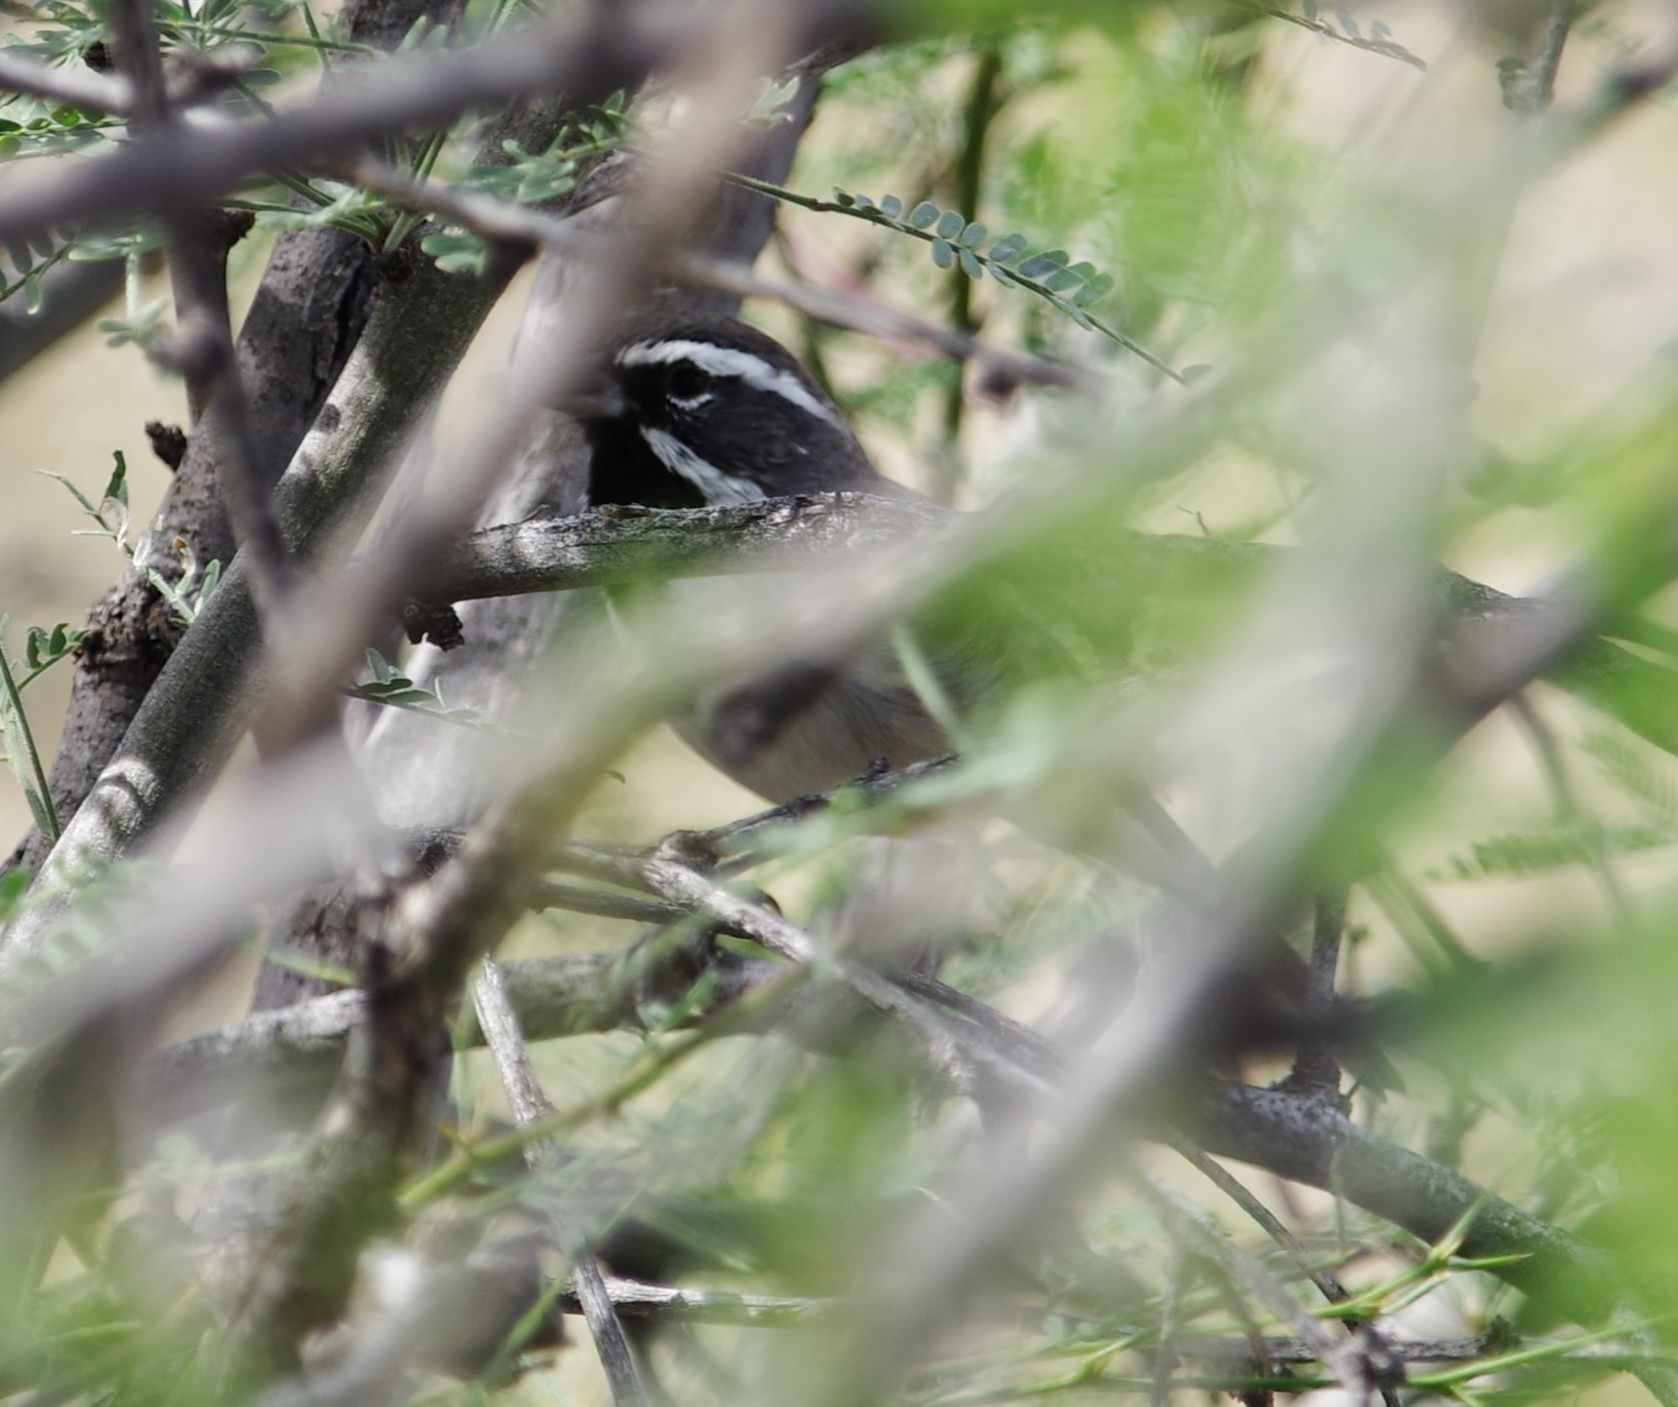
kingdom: Animalia
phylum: Chordata
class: Aves
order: Passeriformes
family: Passerellidae
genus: Amphispiza
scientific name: Amphispiza bilineata
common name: Black-throated sparrow
